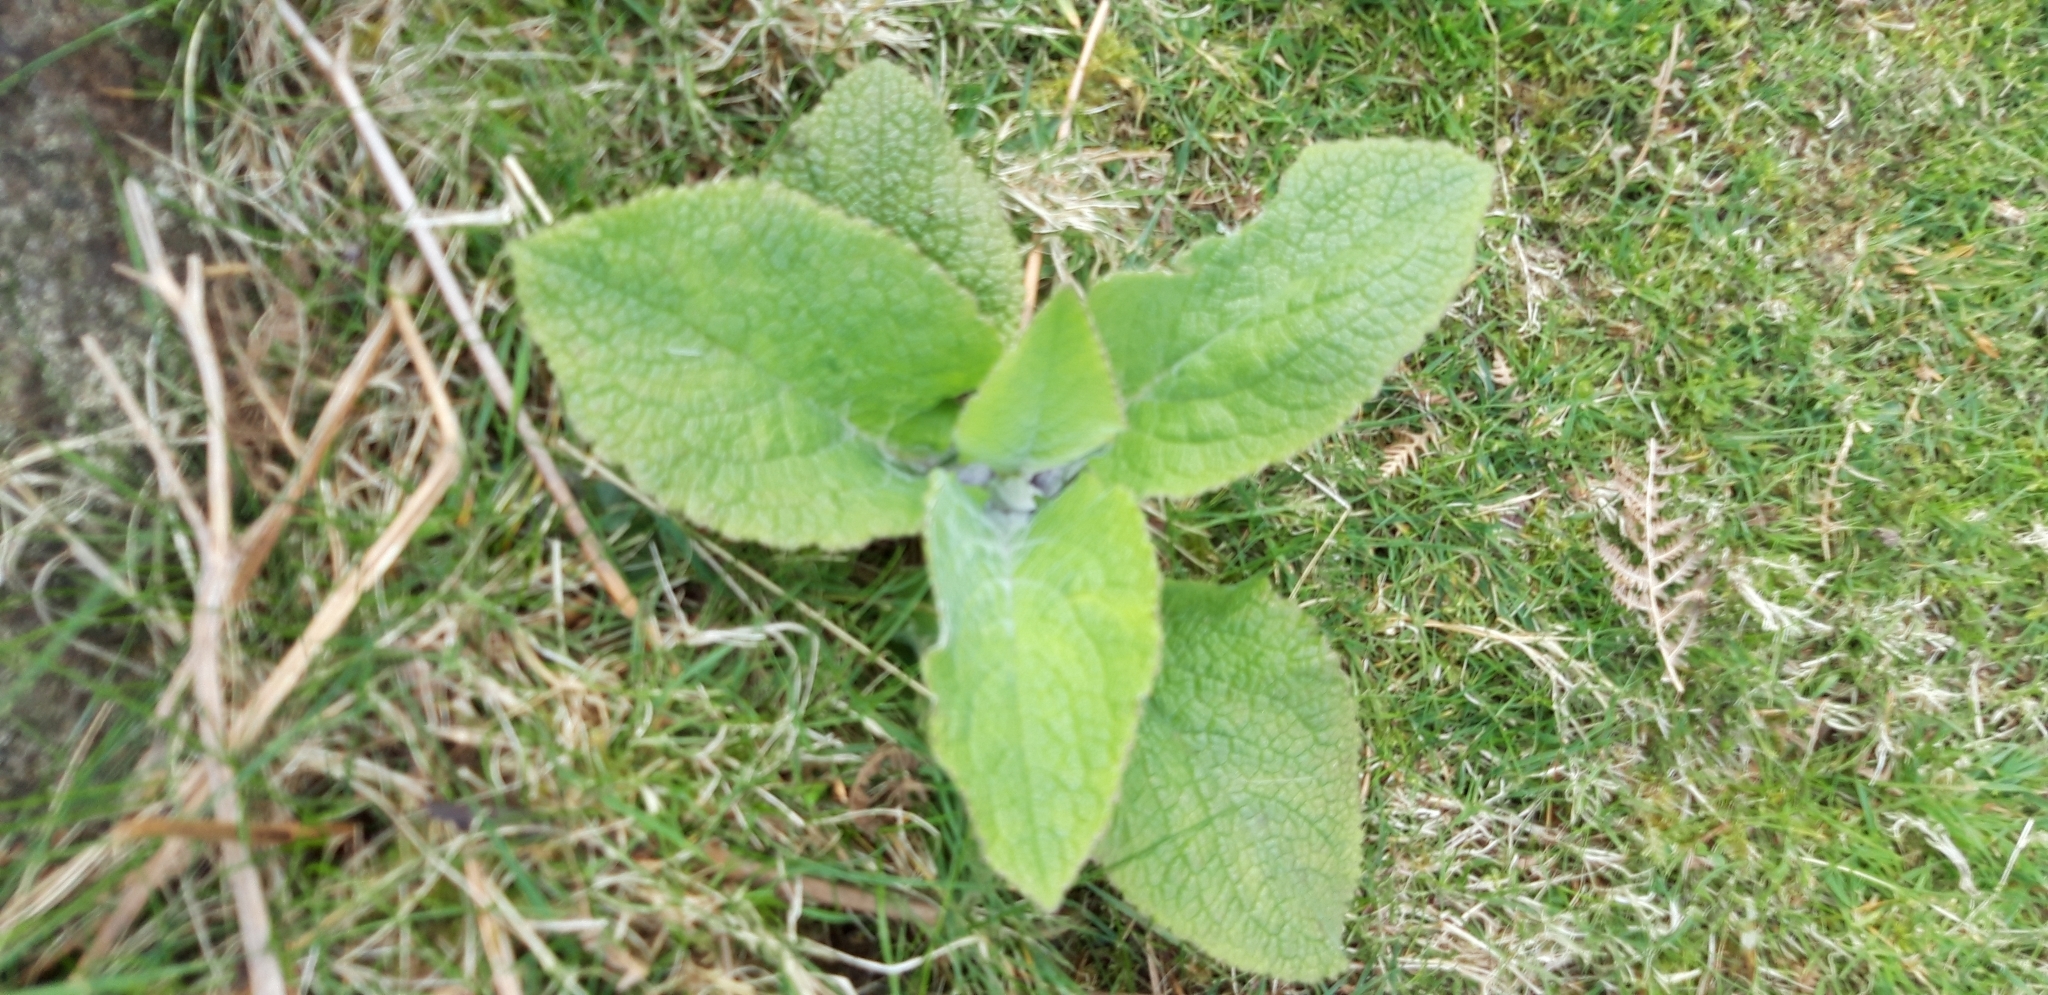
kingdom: Plantae
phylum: Tracheophyta
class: Magnoliopsida
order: Lamiales
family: Plantaginaceae
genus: Digitalis
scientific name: Digitalis purpurea
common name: Foxglove
